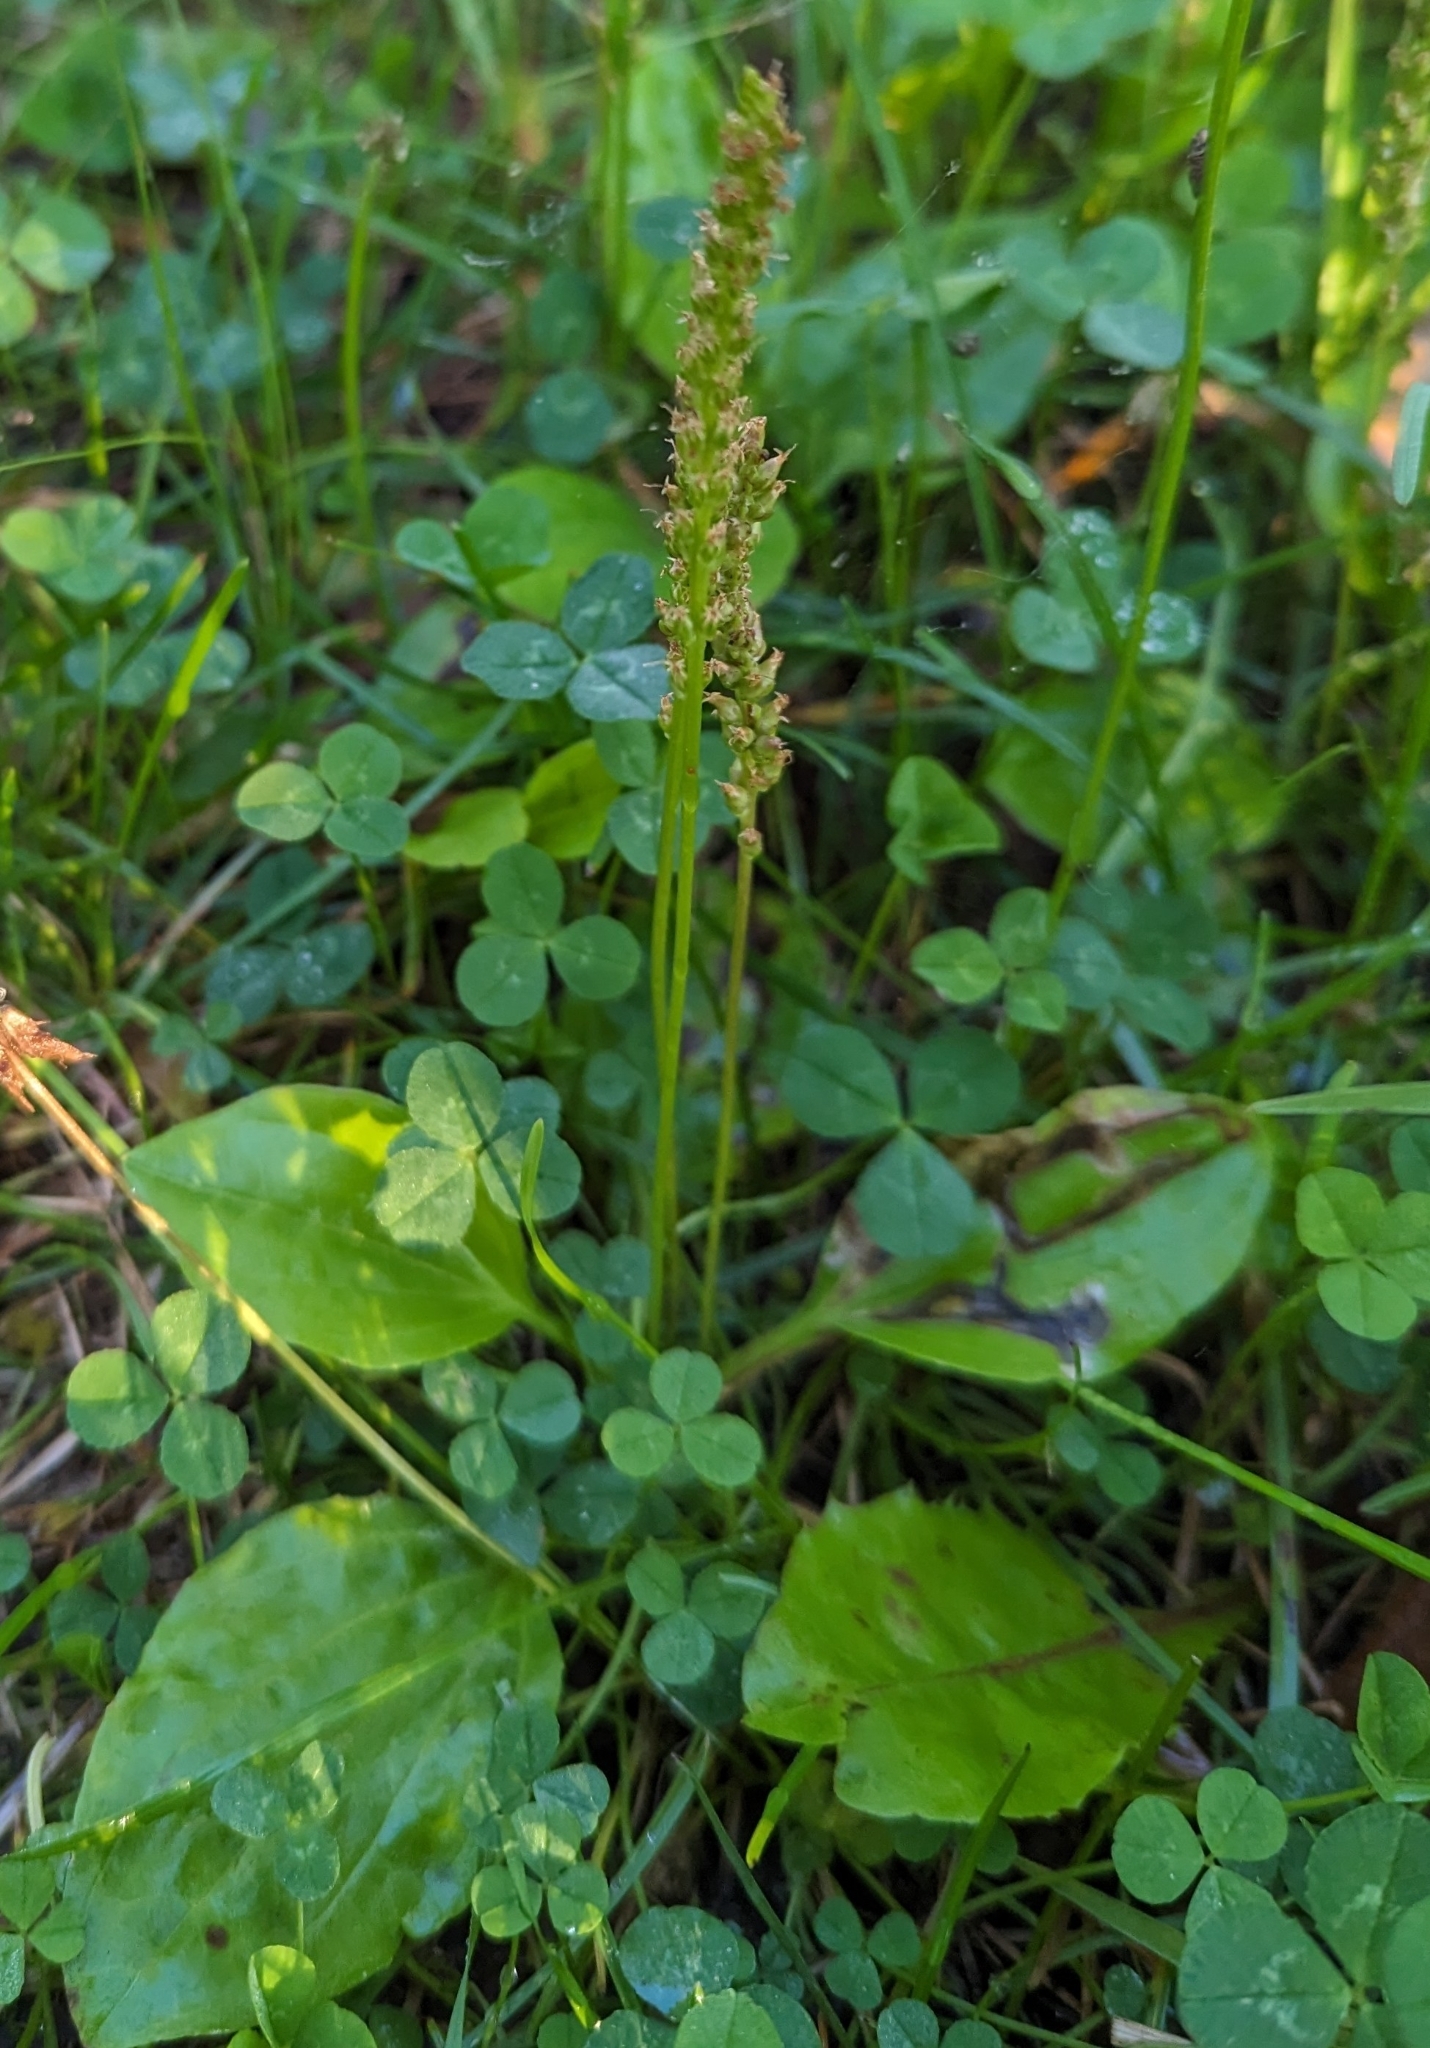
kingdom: Plantae
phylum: Tracheophyta
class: Magnoliopsida
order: Lamiales
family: Plantaginaceae
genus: Plantago
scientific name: Plantago major
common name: Common plantain
